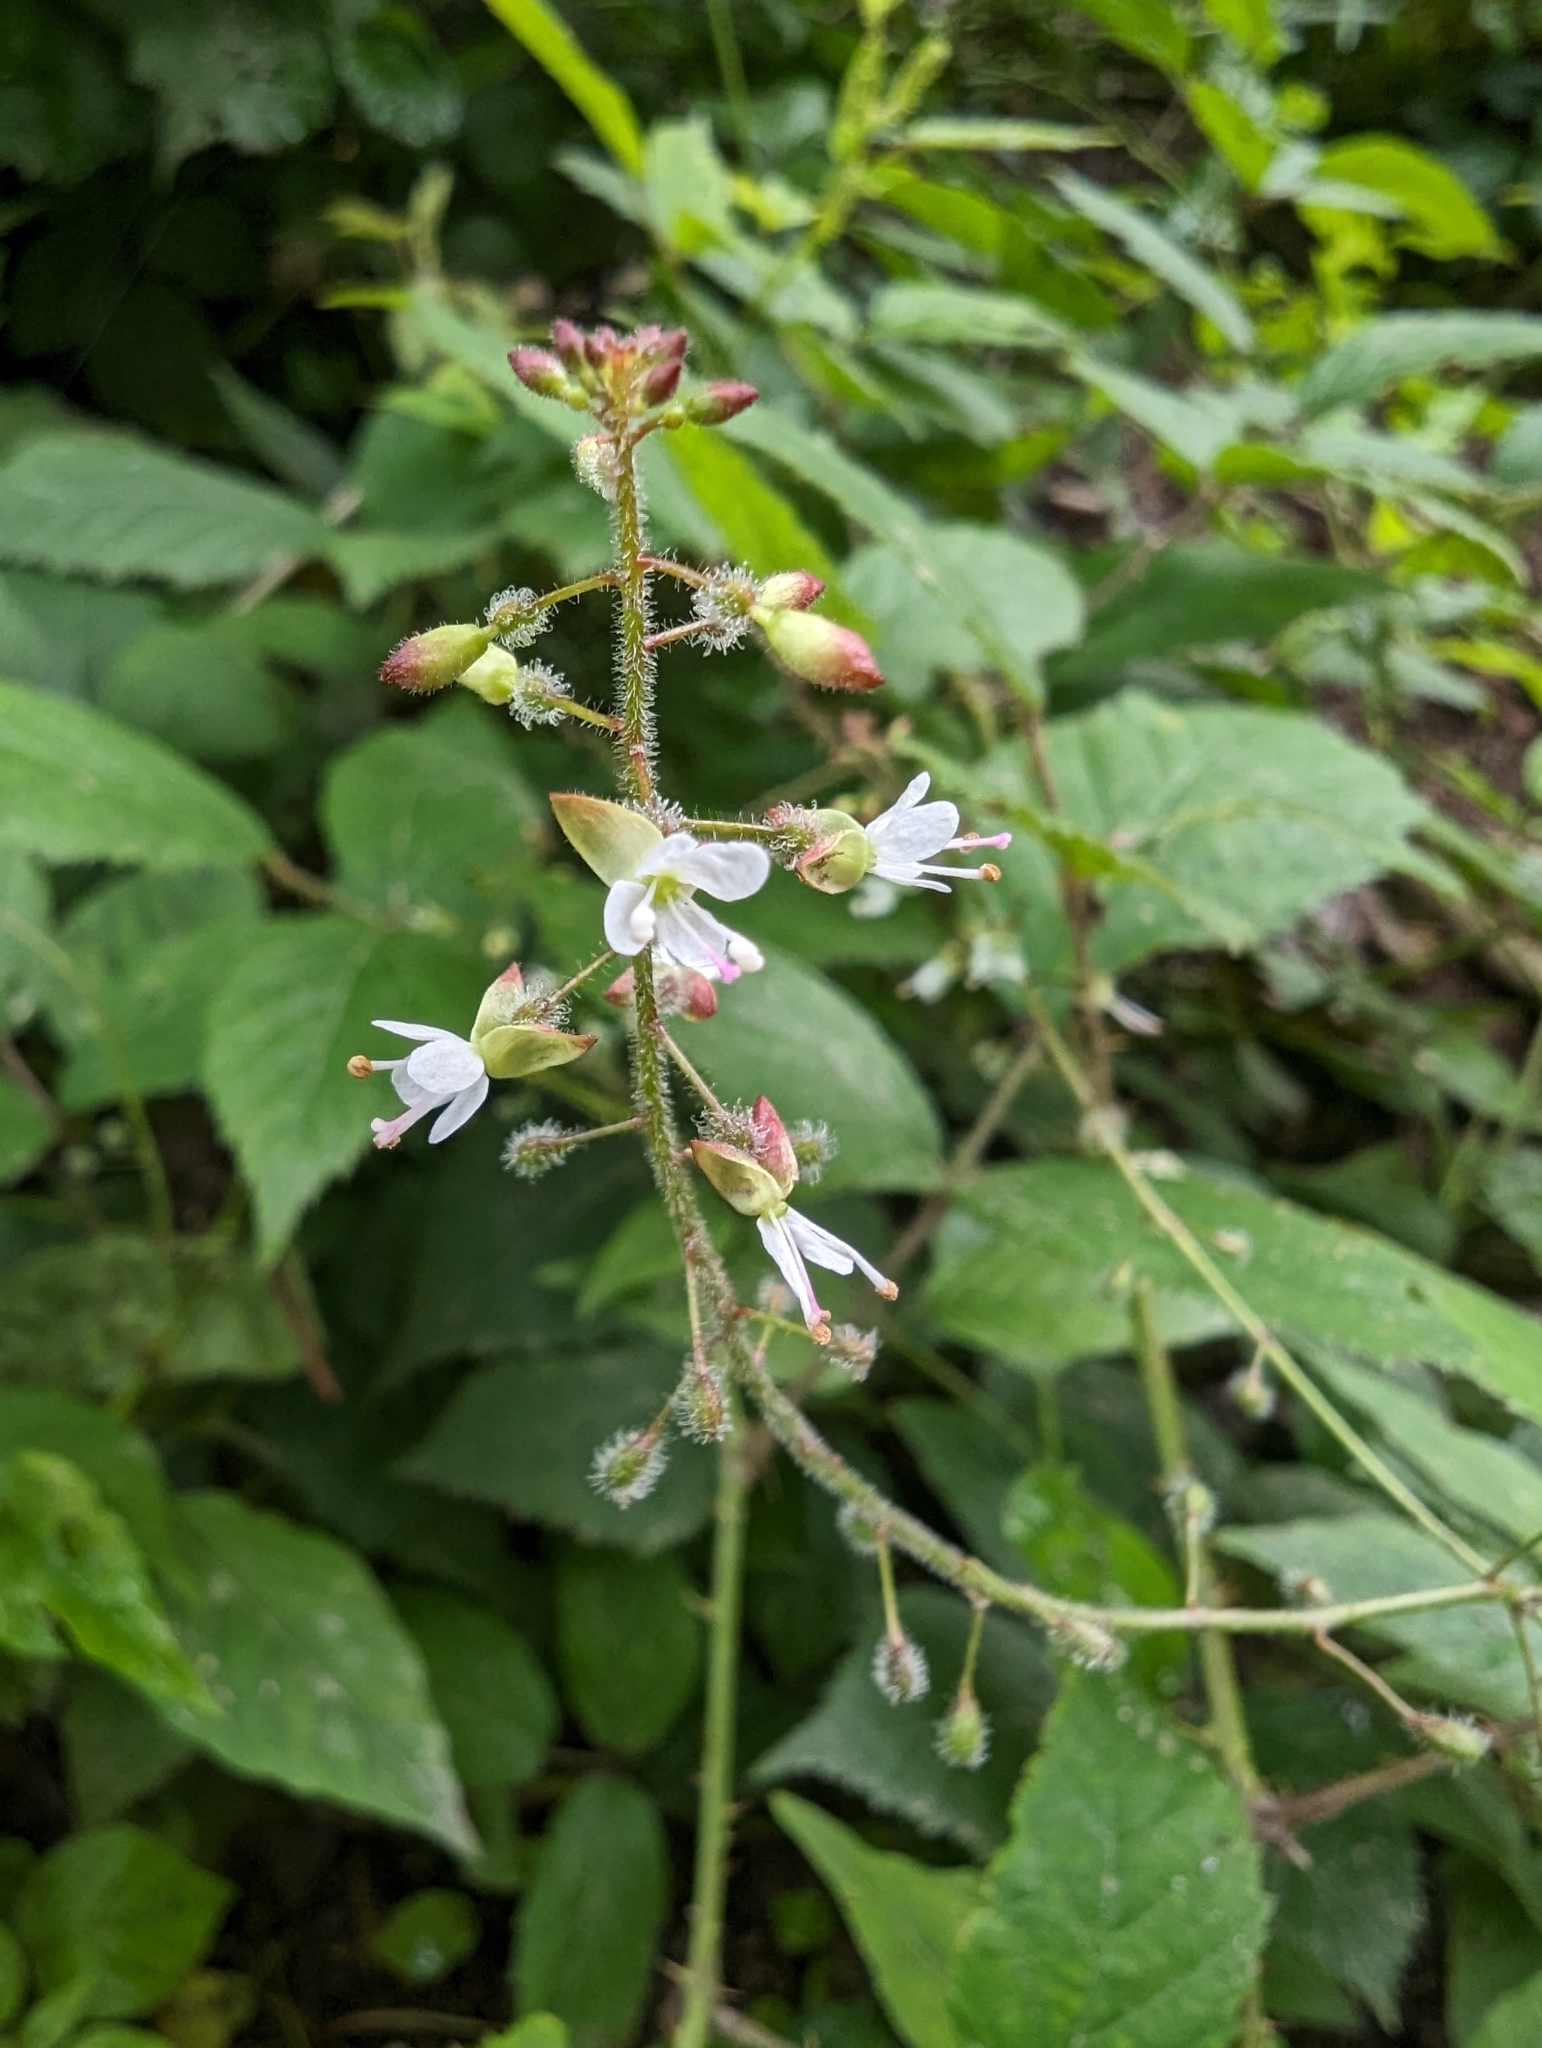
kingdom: Plantae
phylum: Tracheophyta
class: Magnoliopsida
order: Myrtales
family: Onagraceae
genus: Circaea
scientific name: Circaea lutetiana
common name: Enchanter's-nightshade
